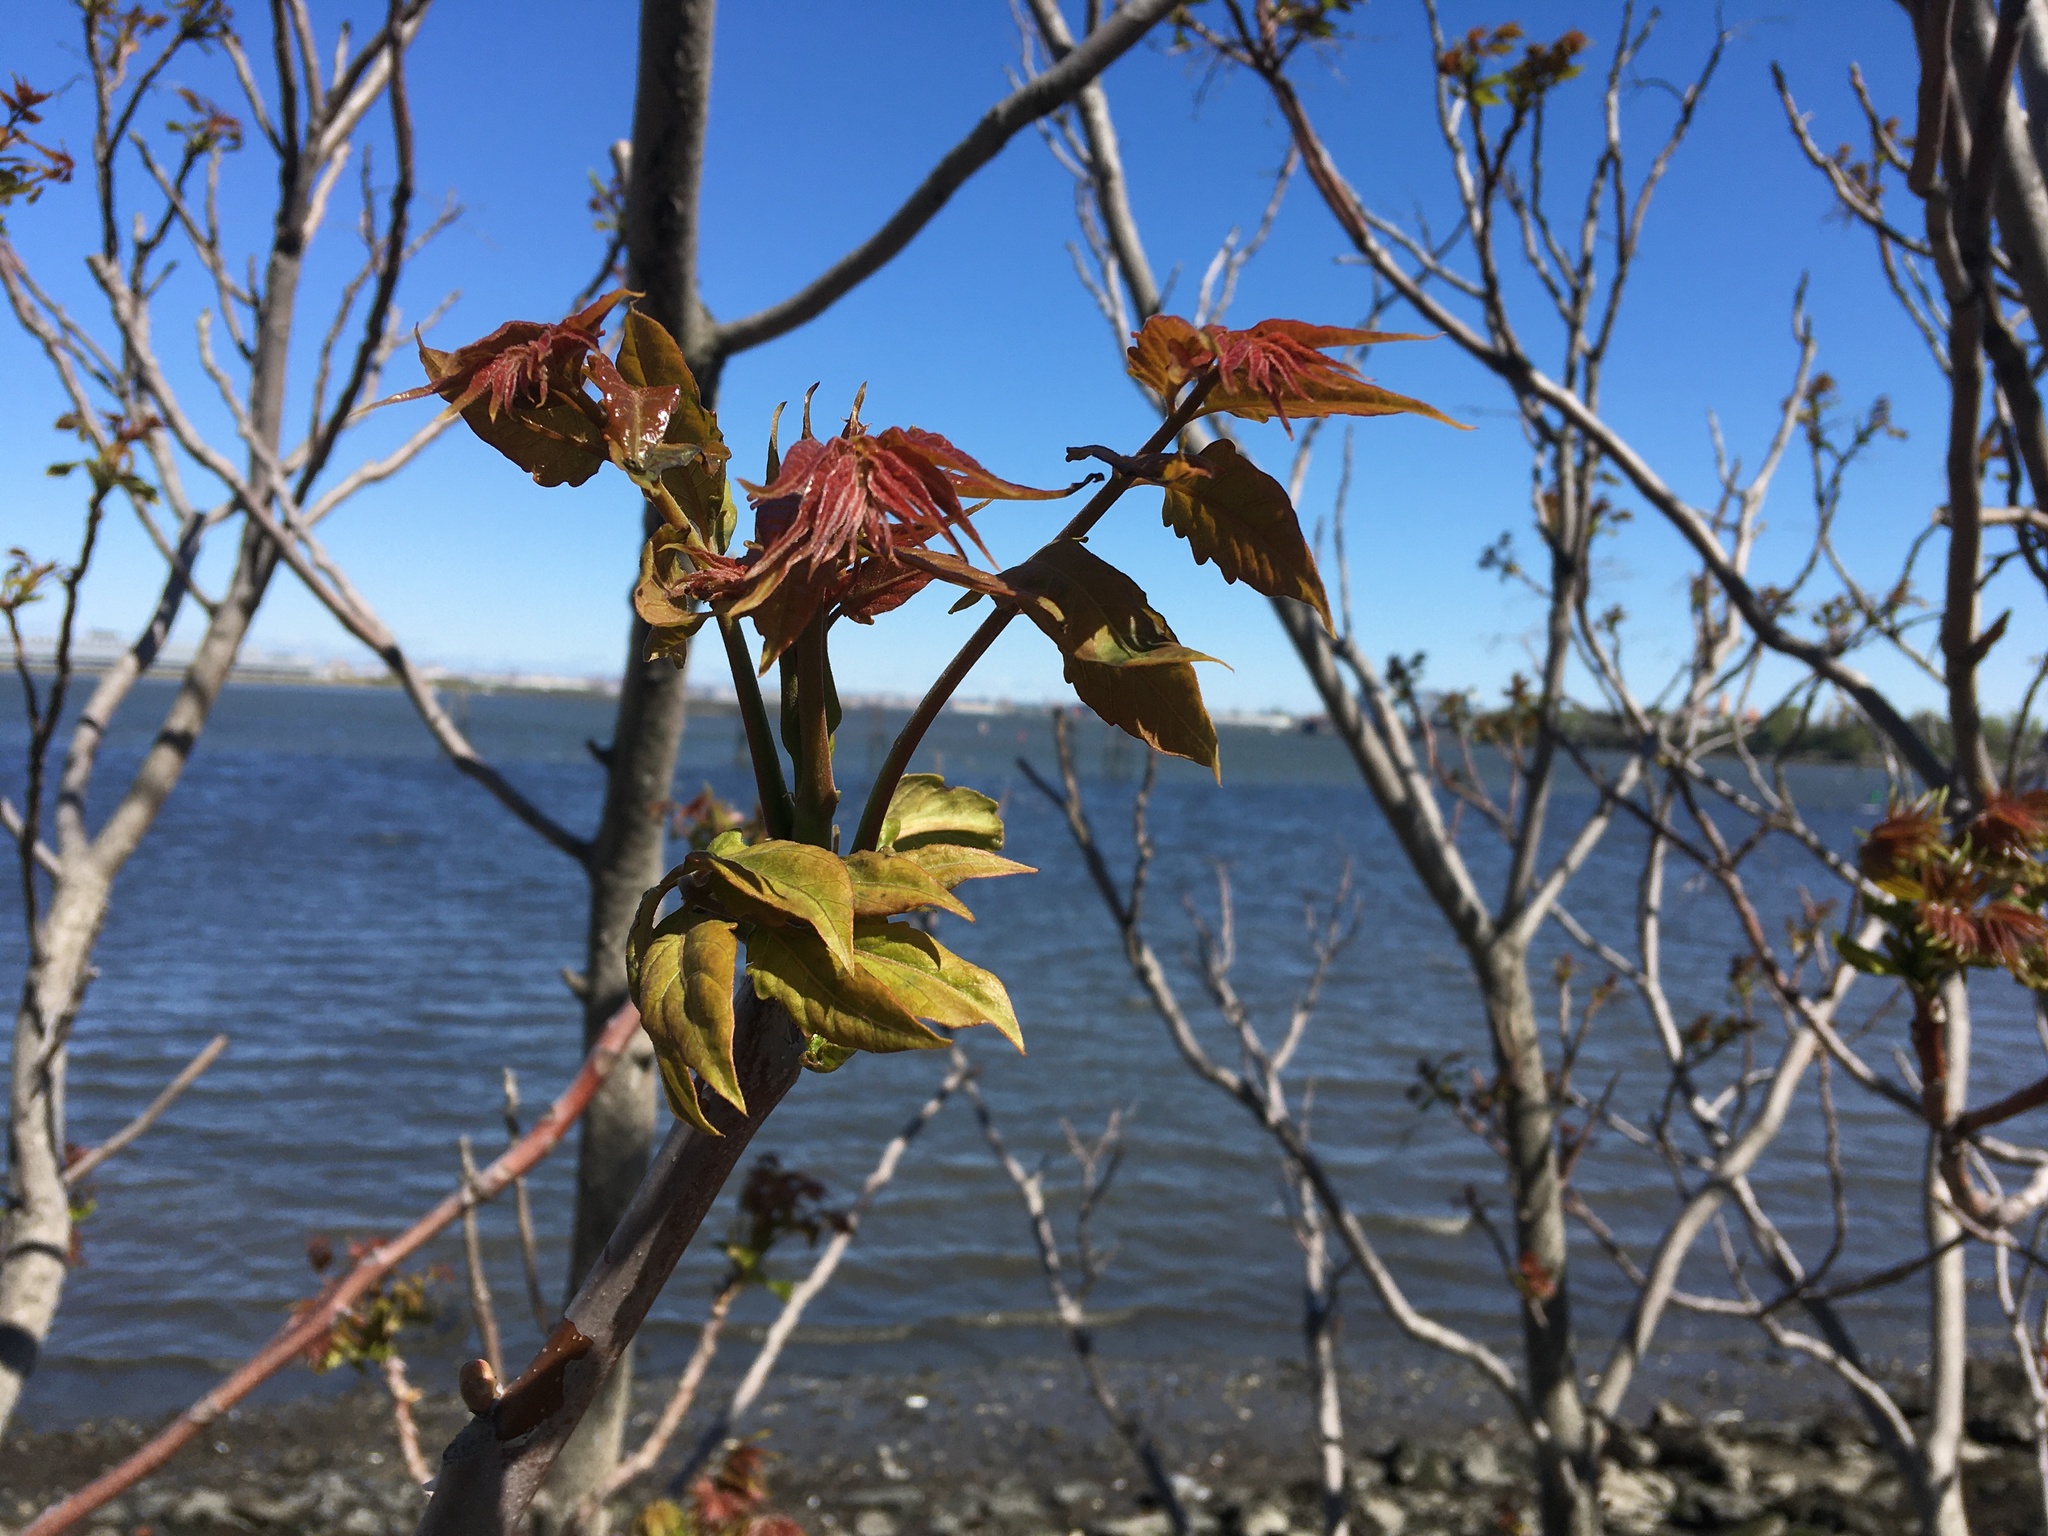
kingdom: Plantae
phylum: Tracheophyta
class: Magnoliopsida
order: Sapindales
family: Simaroubaceae
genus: Ailanthus
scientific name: Ailanthus altissima
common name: Tree-of-heaven
